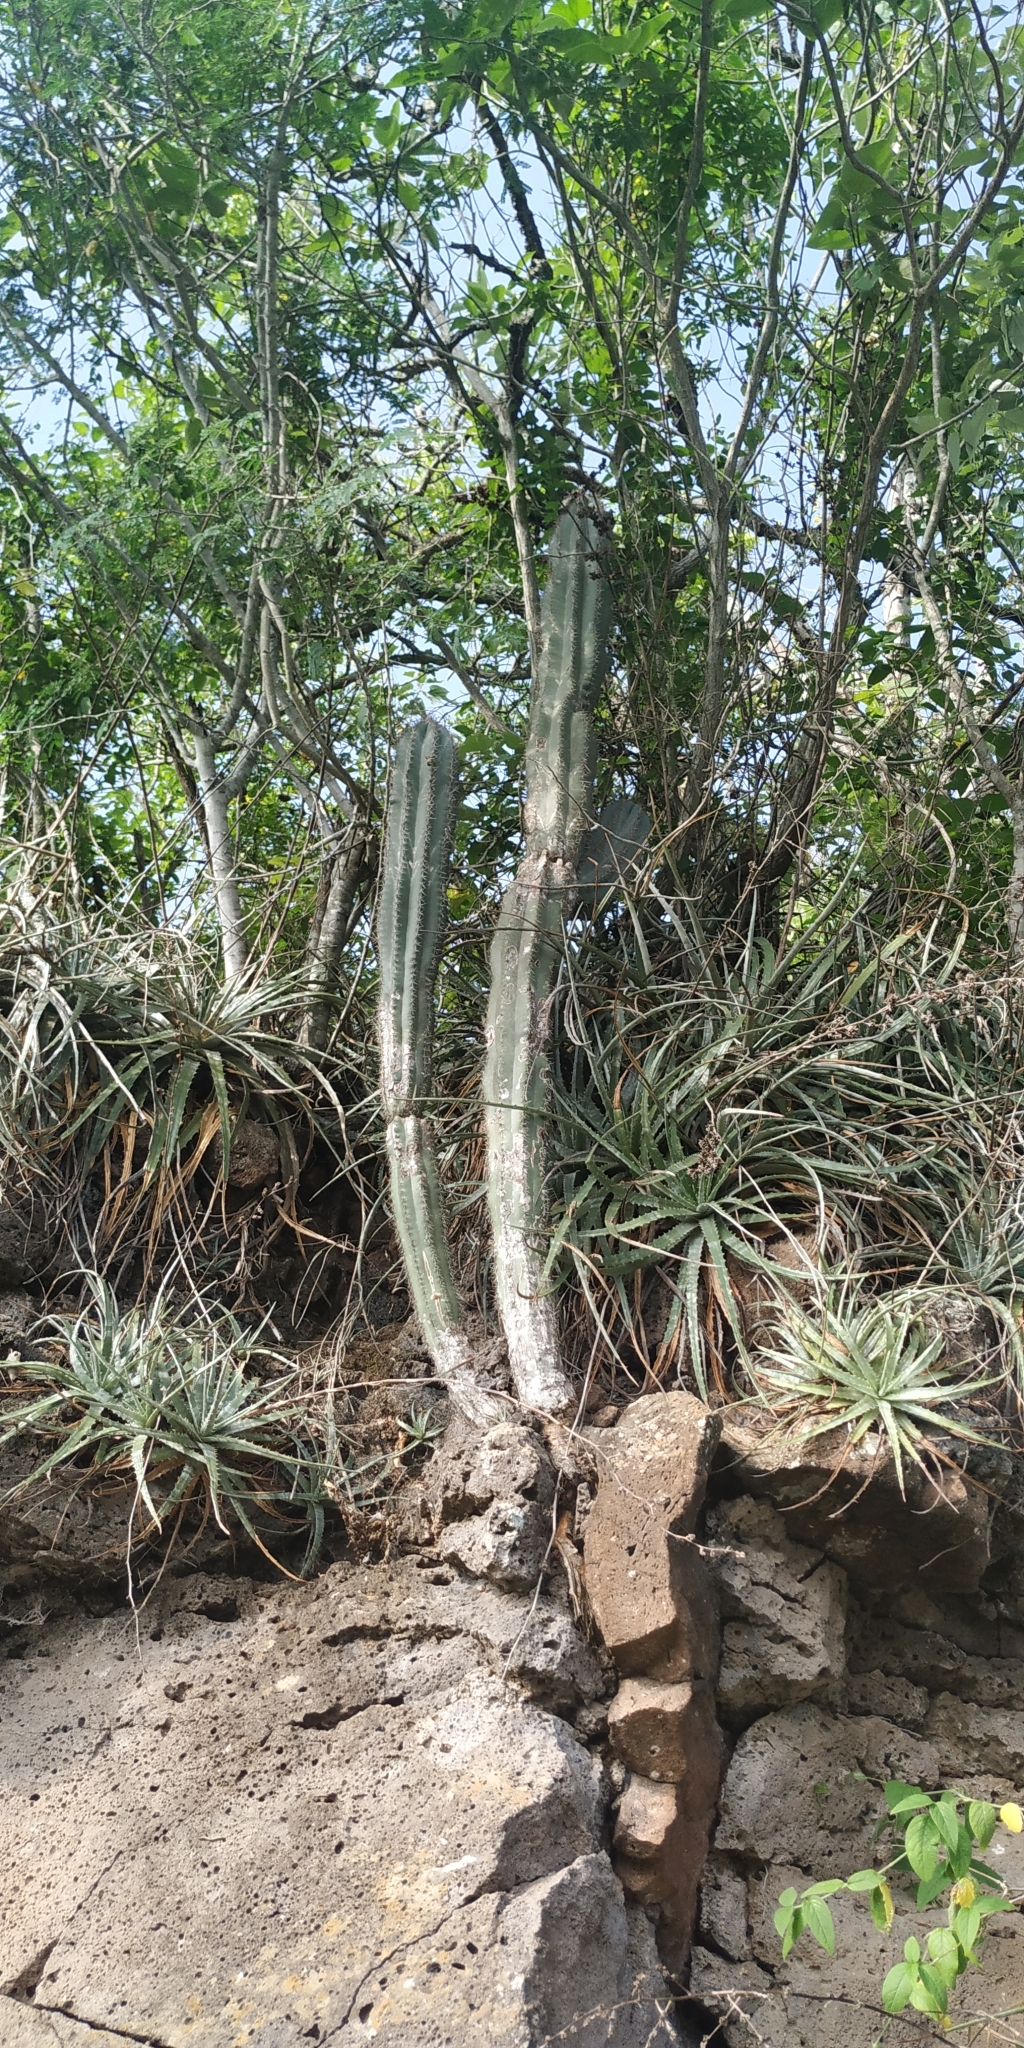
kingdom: Plantae
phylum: Tracheophyta
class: Magnoliopsida
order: Caryophyllales
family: Cactaceae
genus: Pilosocereus
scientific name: Pilosocereus leucocephalus
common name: Old man cactus
